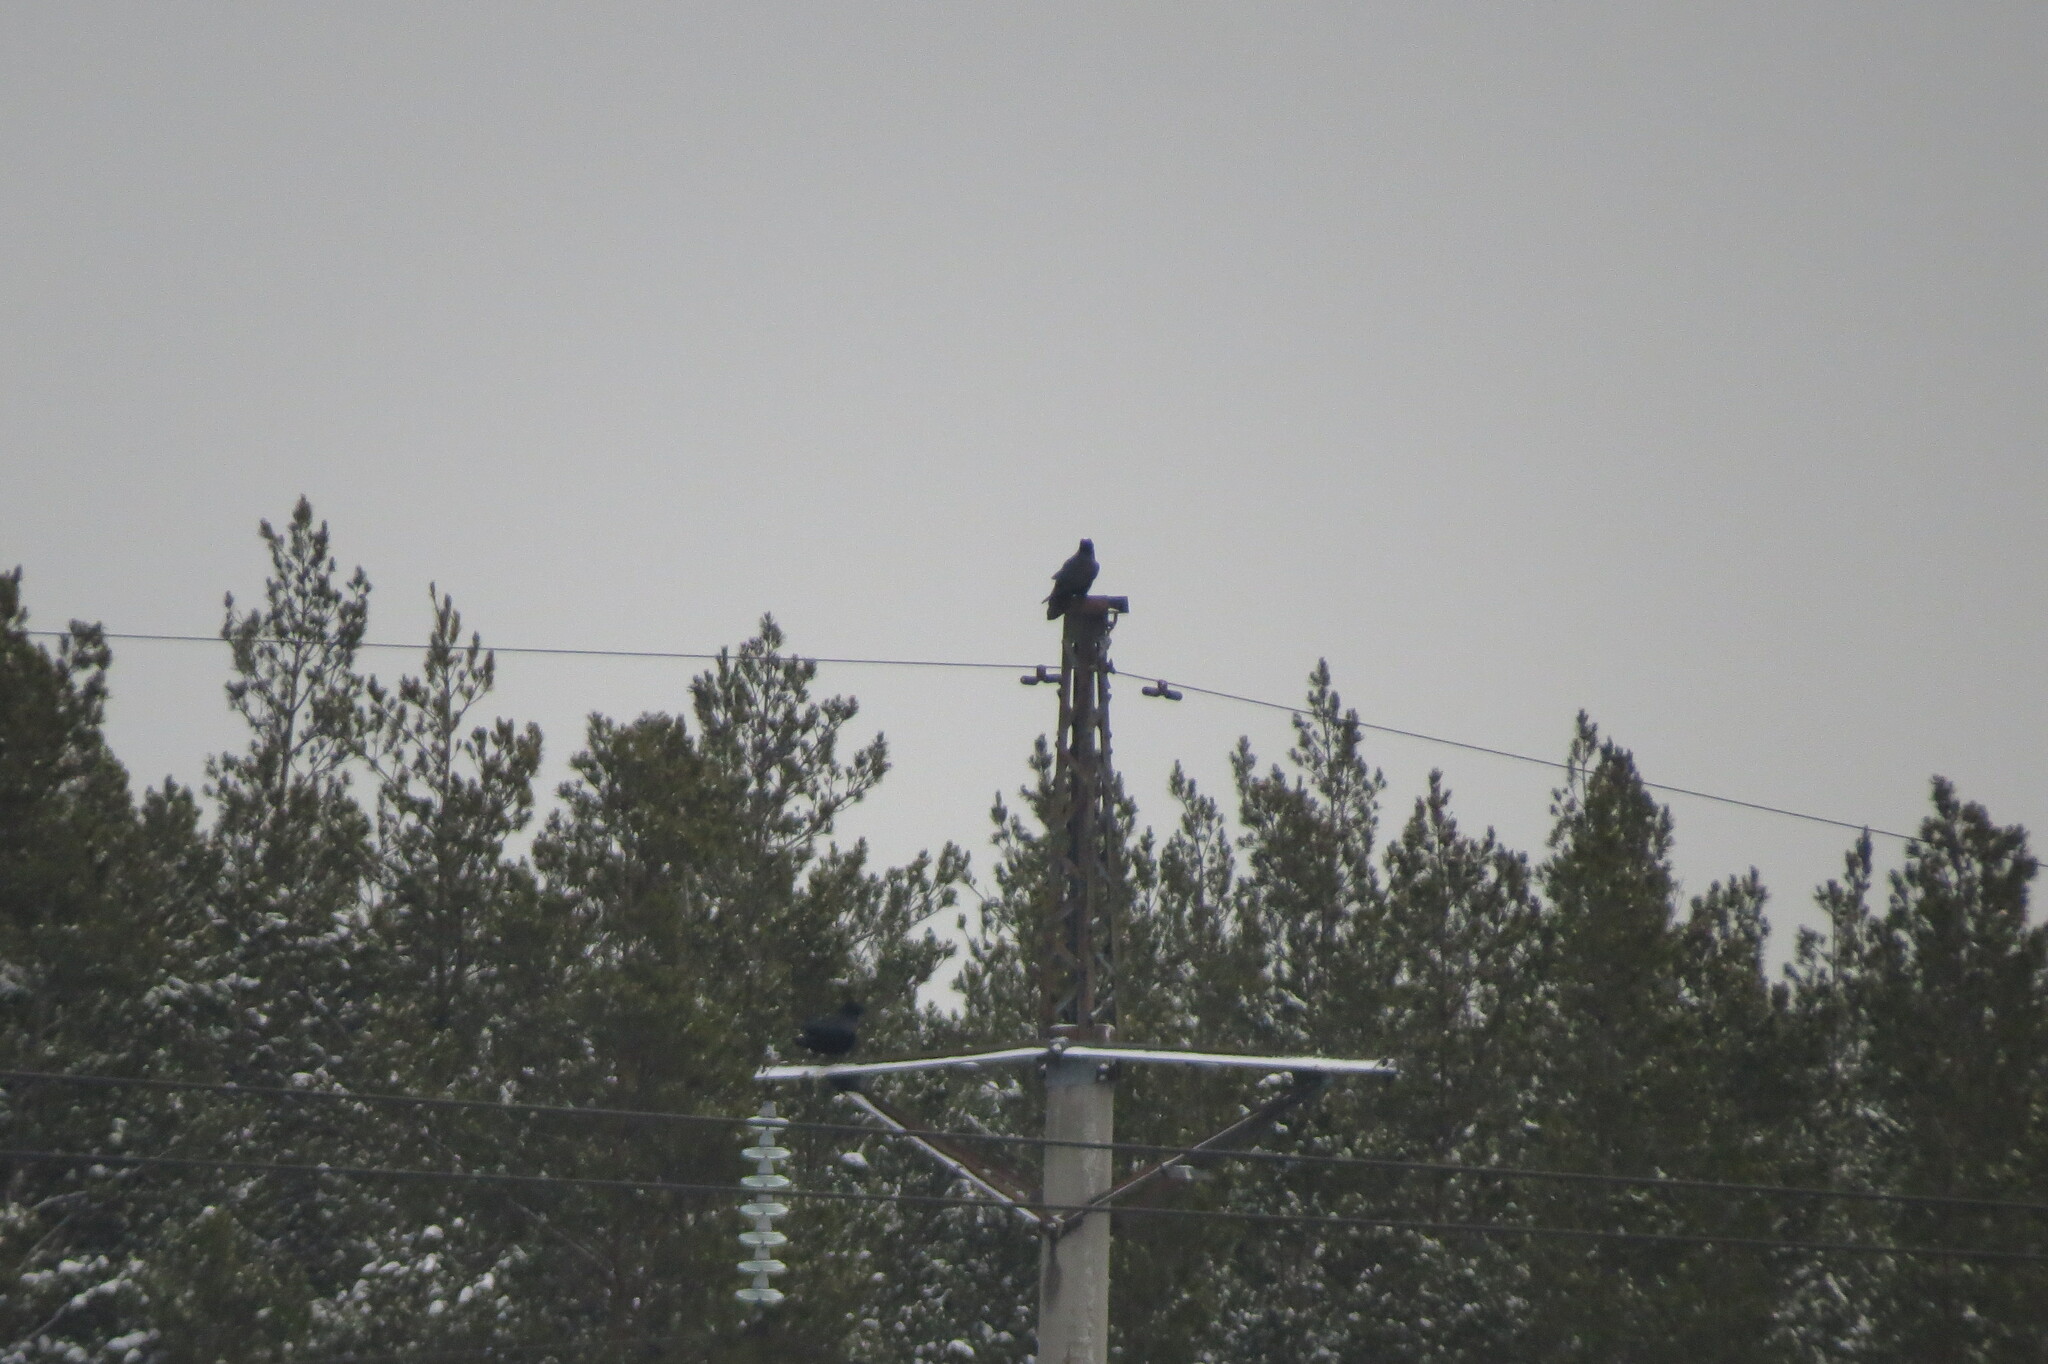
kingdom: Animalia
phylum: Chordata
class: Aves
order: Passeriformes
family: Corvidae
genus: Corvus
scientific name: Corvus corax
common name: Common raven
